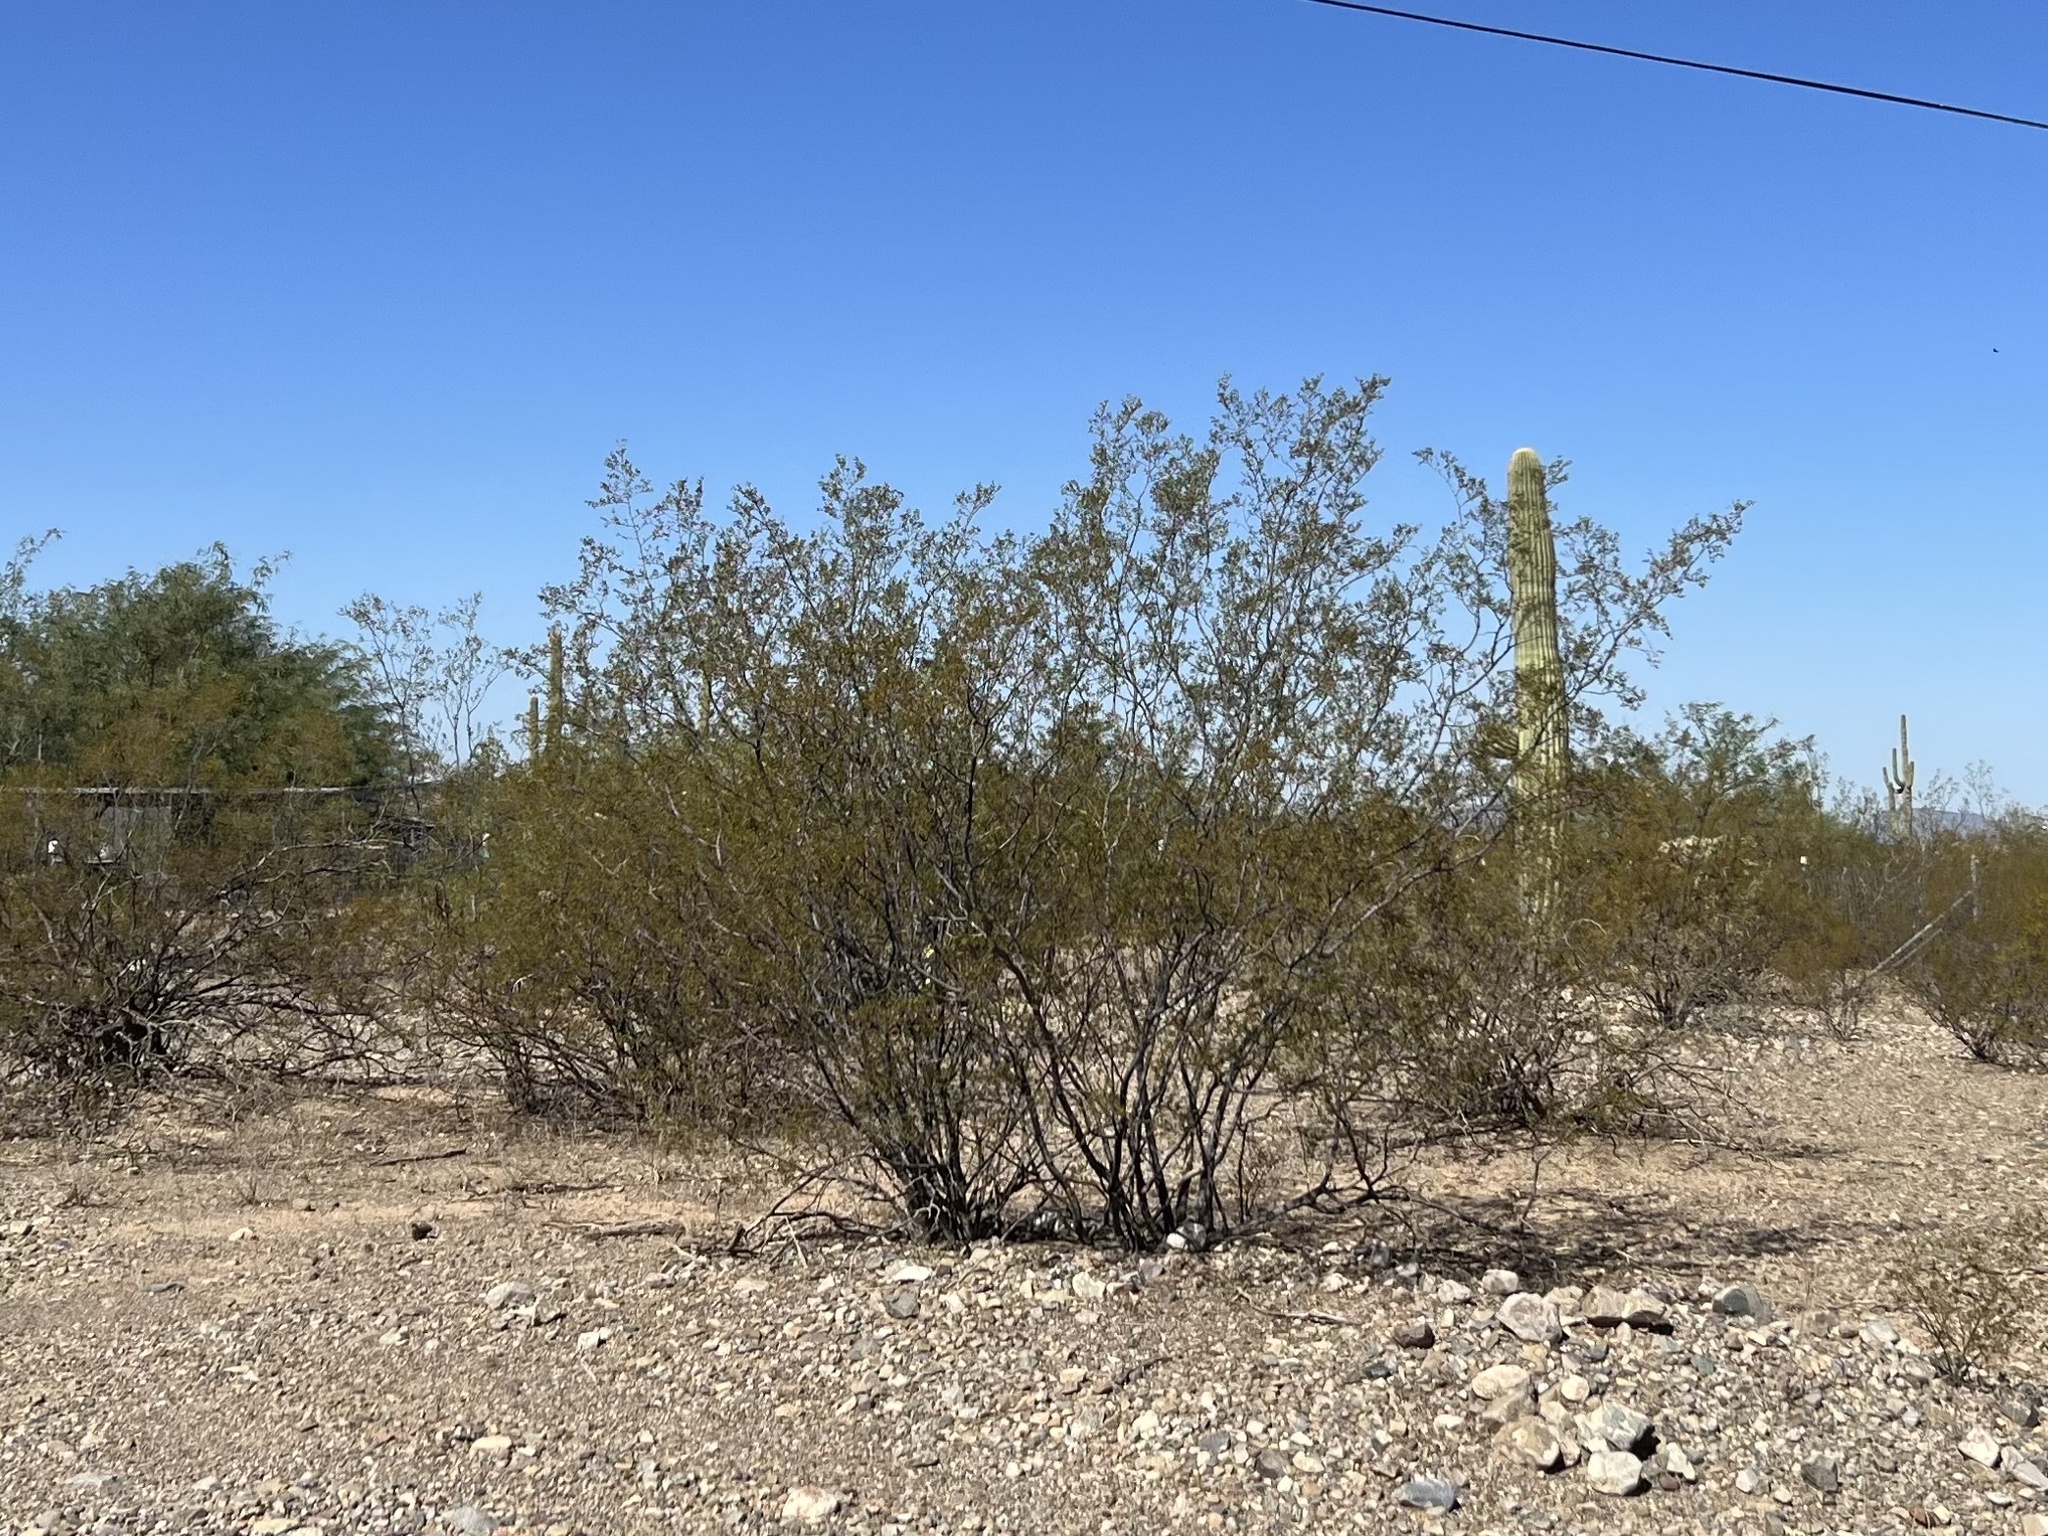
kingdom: Plantae
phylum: Tracheophyta
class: Magnoliopsida
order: Zygophyllales
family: Zygophyllaceae
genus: Larrea
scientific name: Larrea tridentata
